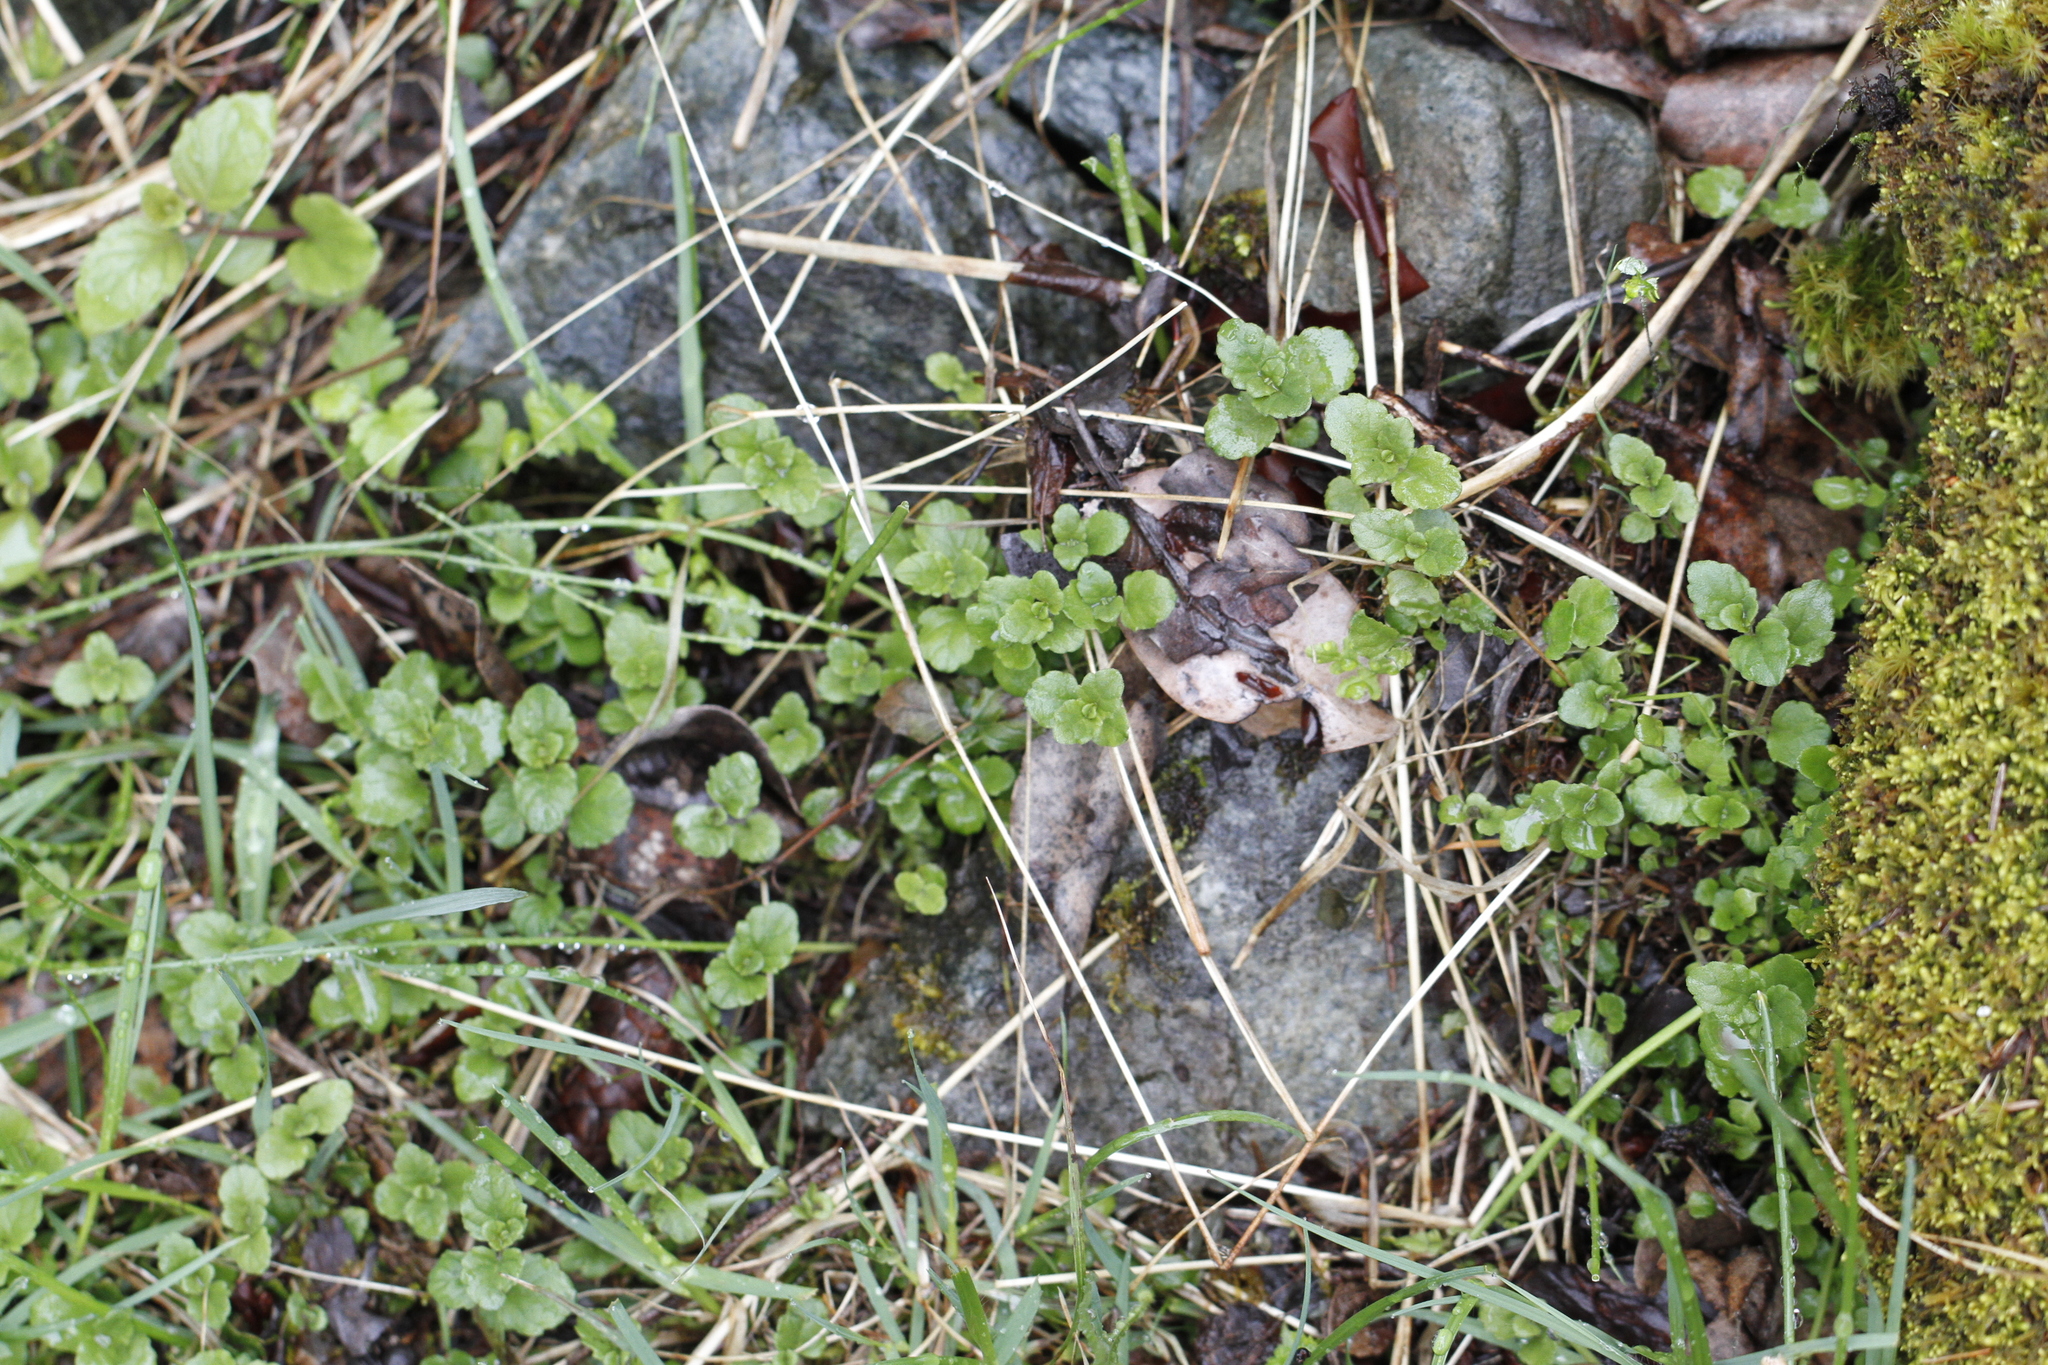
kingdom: Plantae
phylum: Tracheophyta
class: Magnoliopsida
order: Lamiales
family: Lamiaceae
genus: Micromeria
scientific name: Micromeria douglasii
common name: Yerba buena
